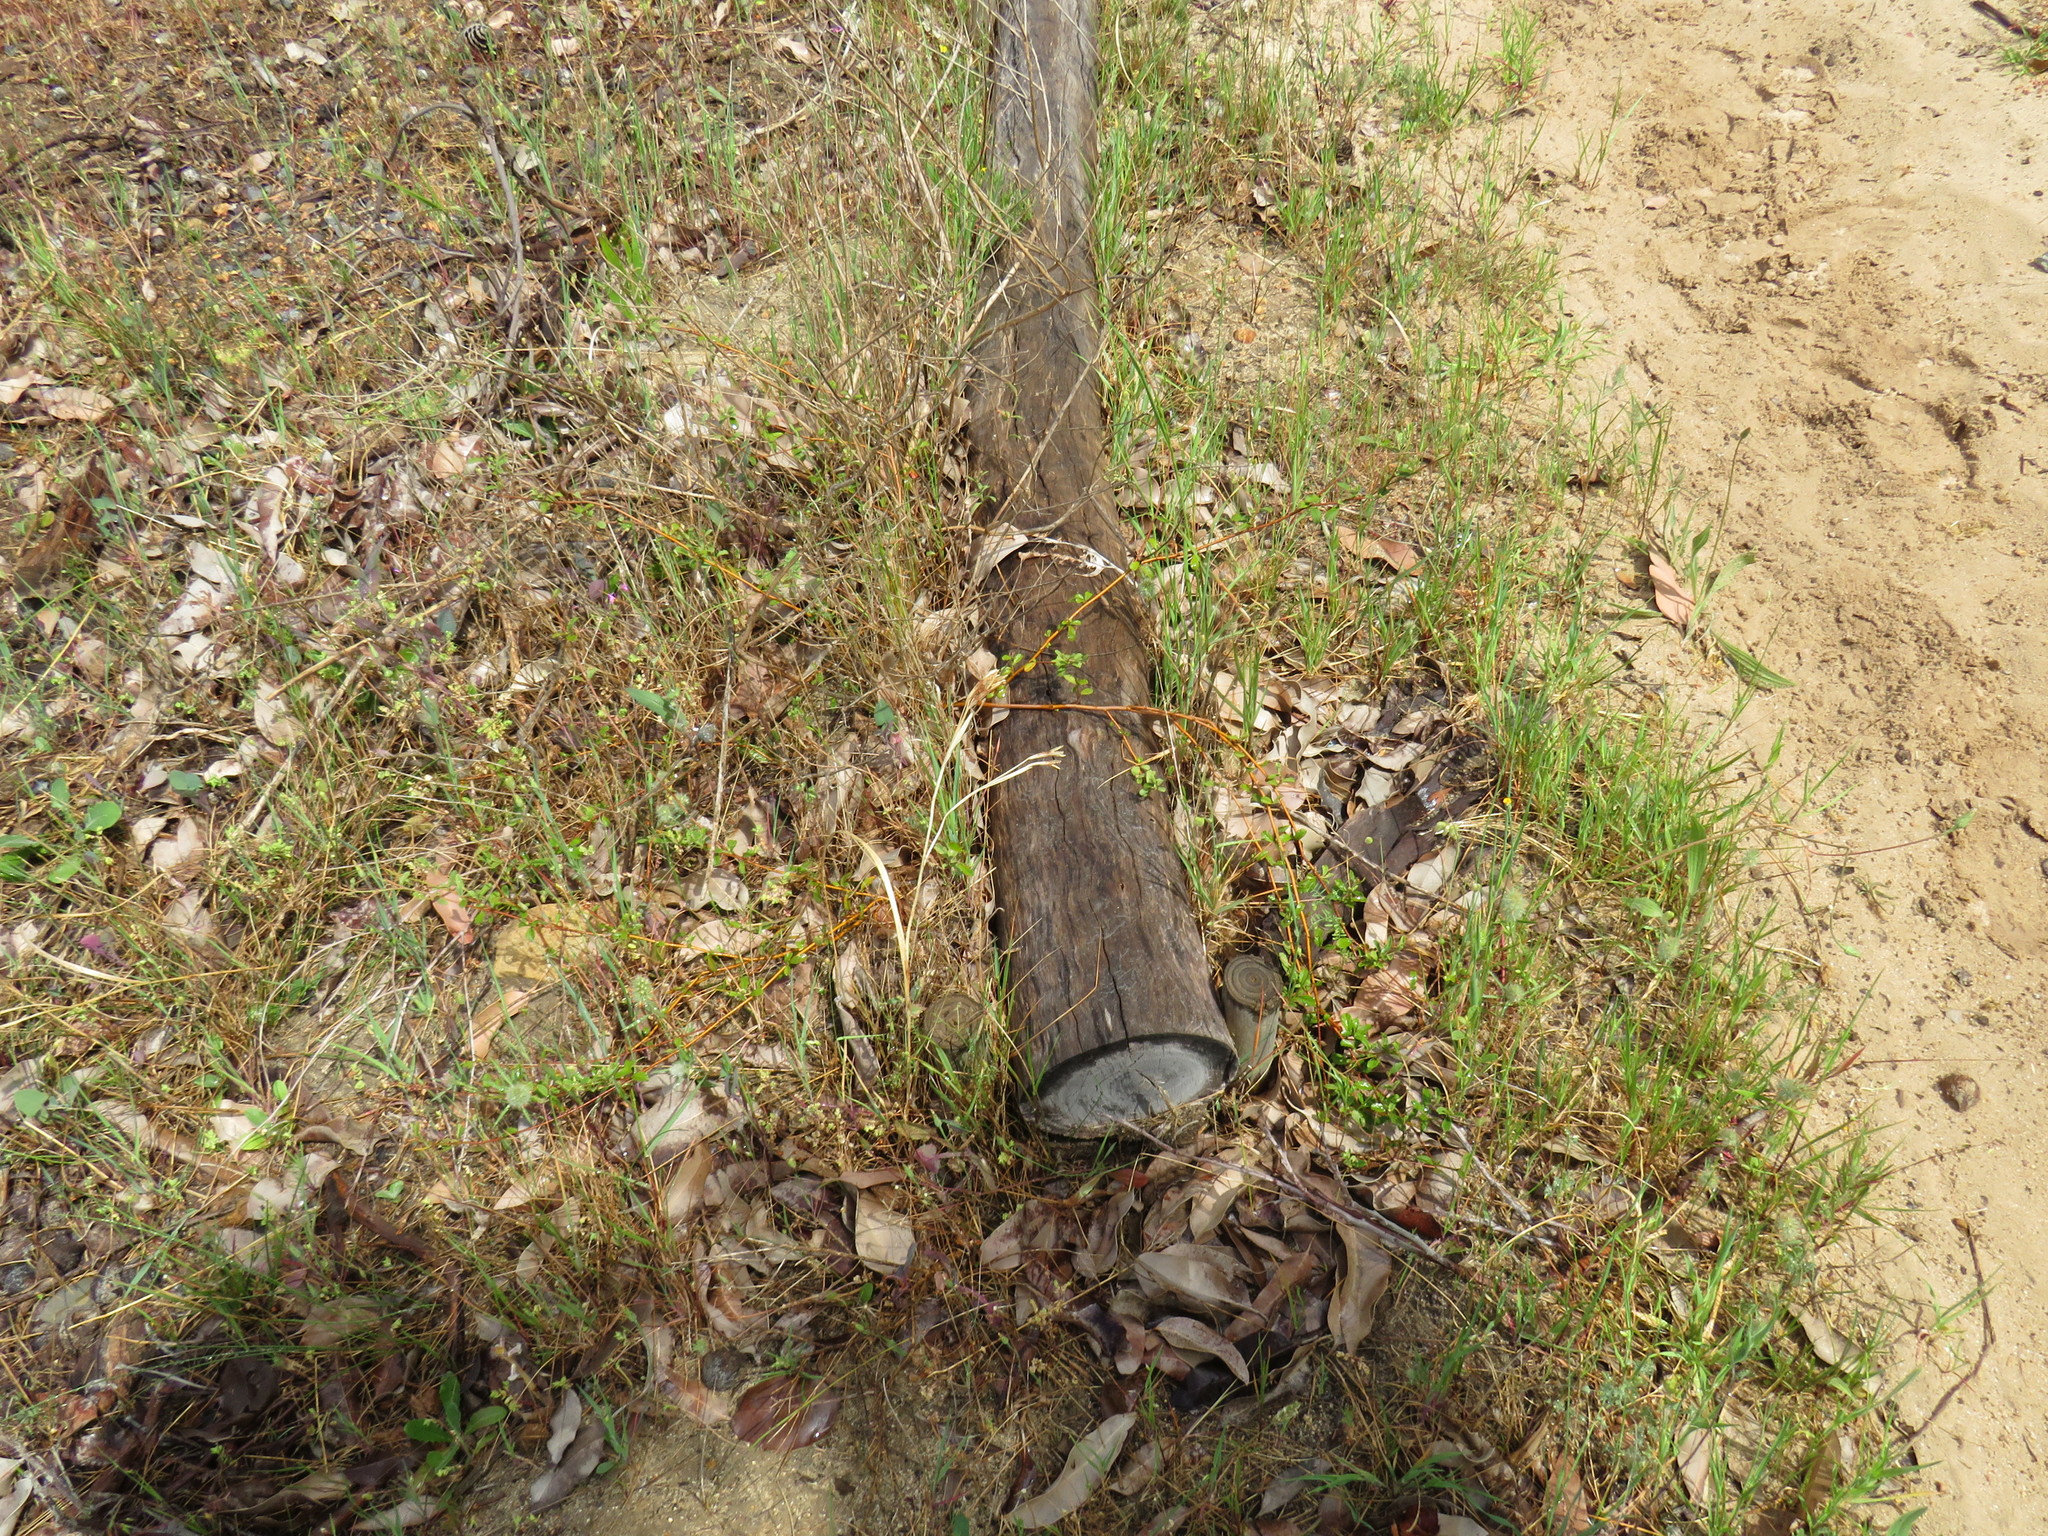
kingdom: Plantae
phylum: Tracheophyta
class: Magnoliopsida
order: Malvales
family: Malvaceae
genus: Hermannia
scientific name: Hermannia multiflora
